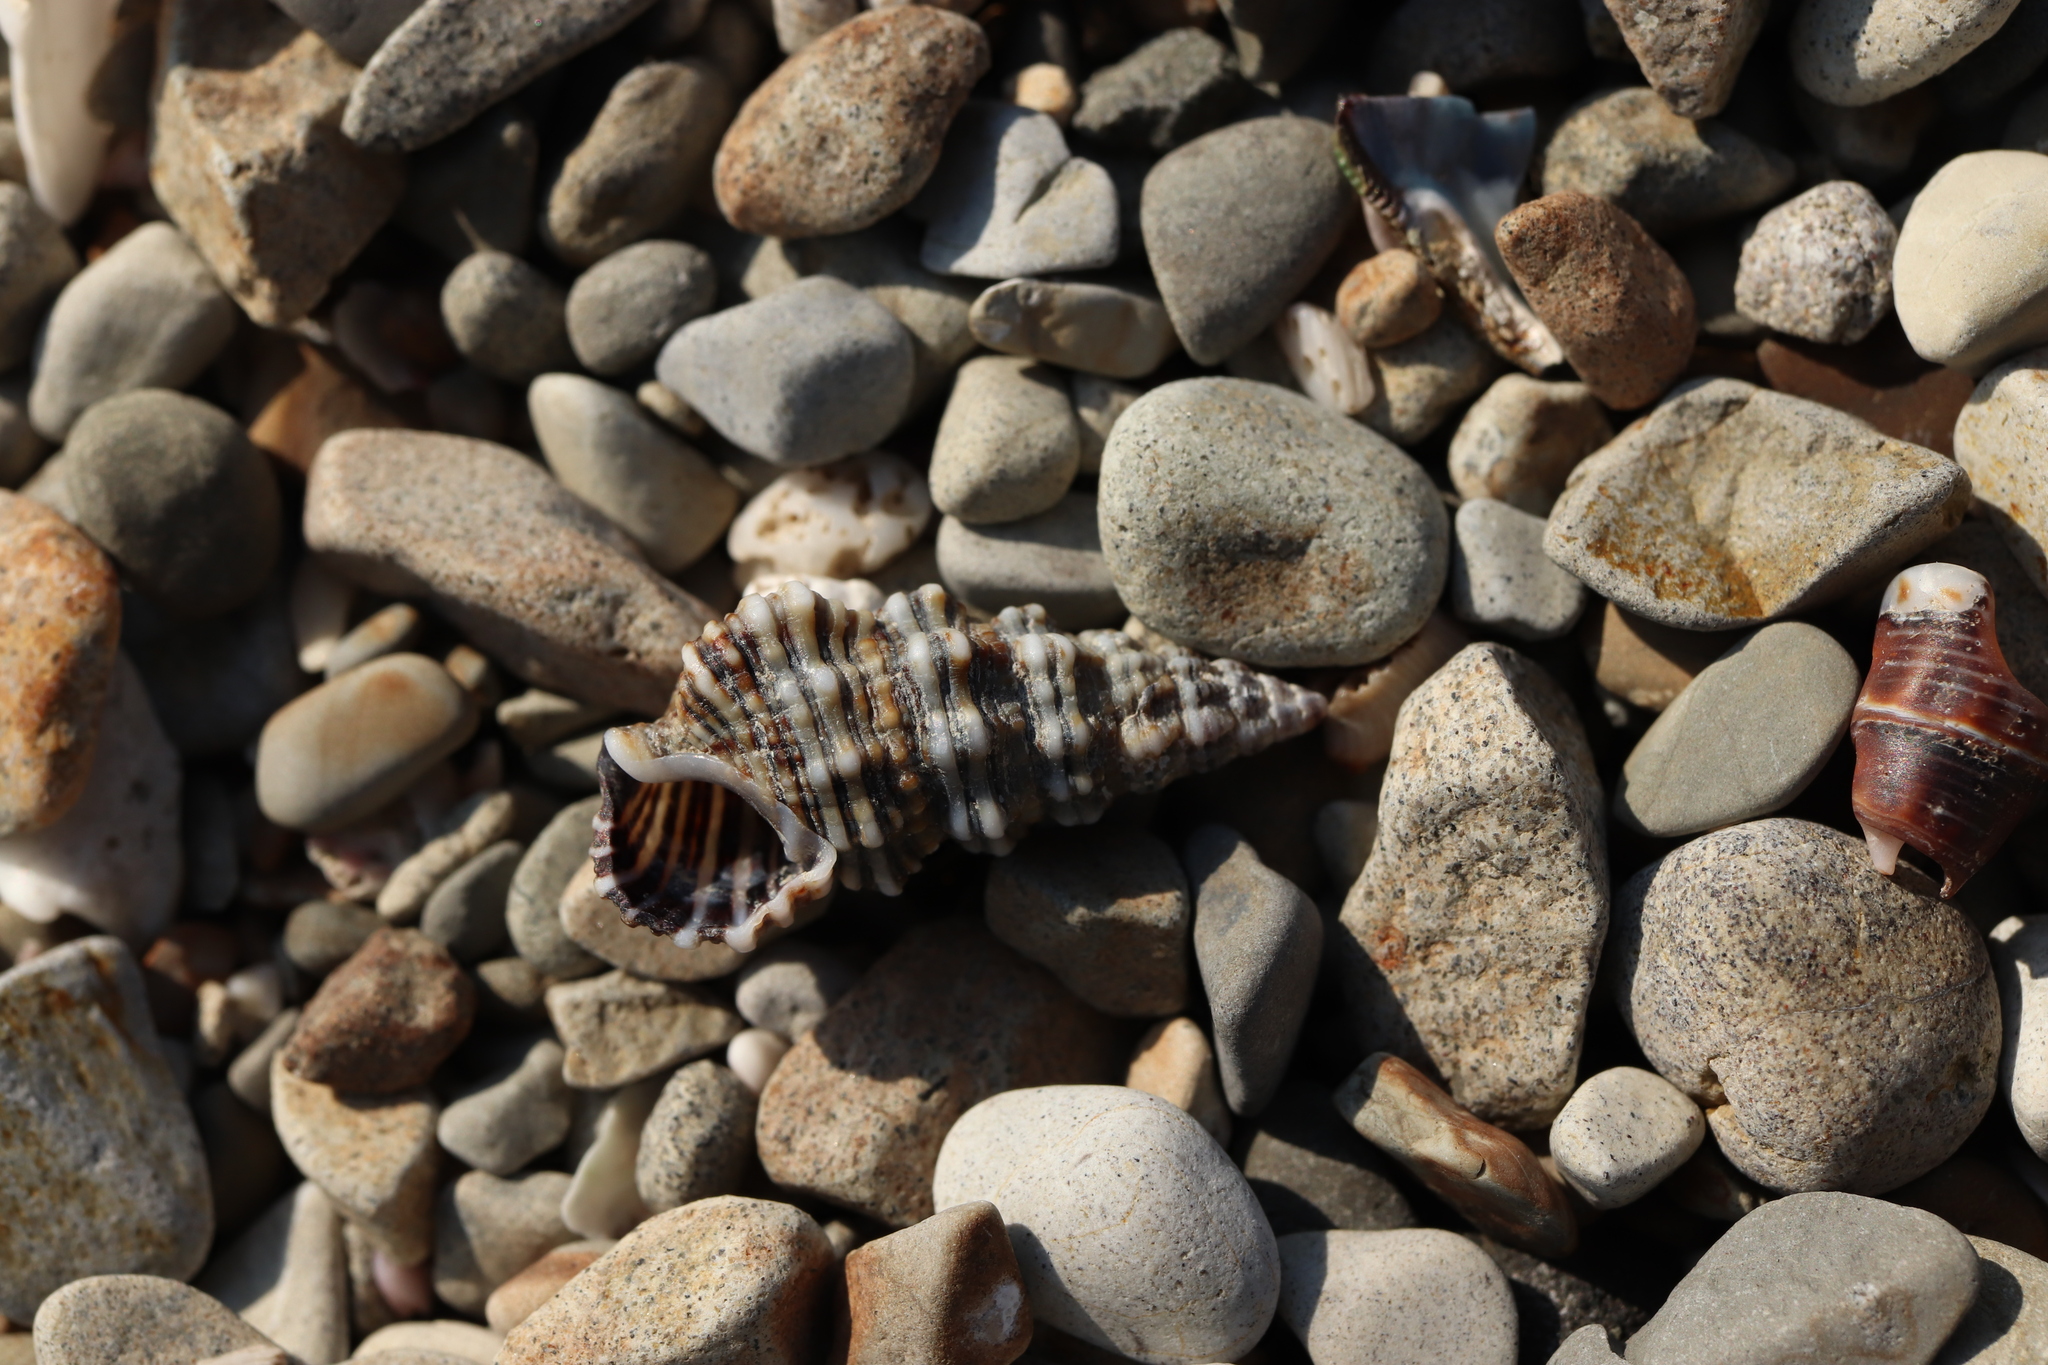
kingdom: Animalia
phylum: Mollusca
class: Gastropoda
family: Cerithiidae
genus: Cerithium
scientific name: Cerithium dialeucum
